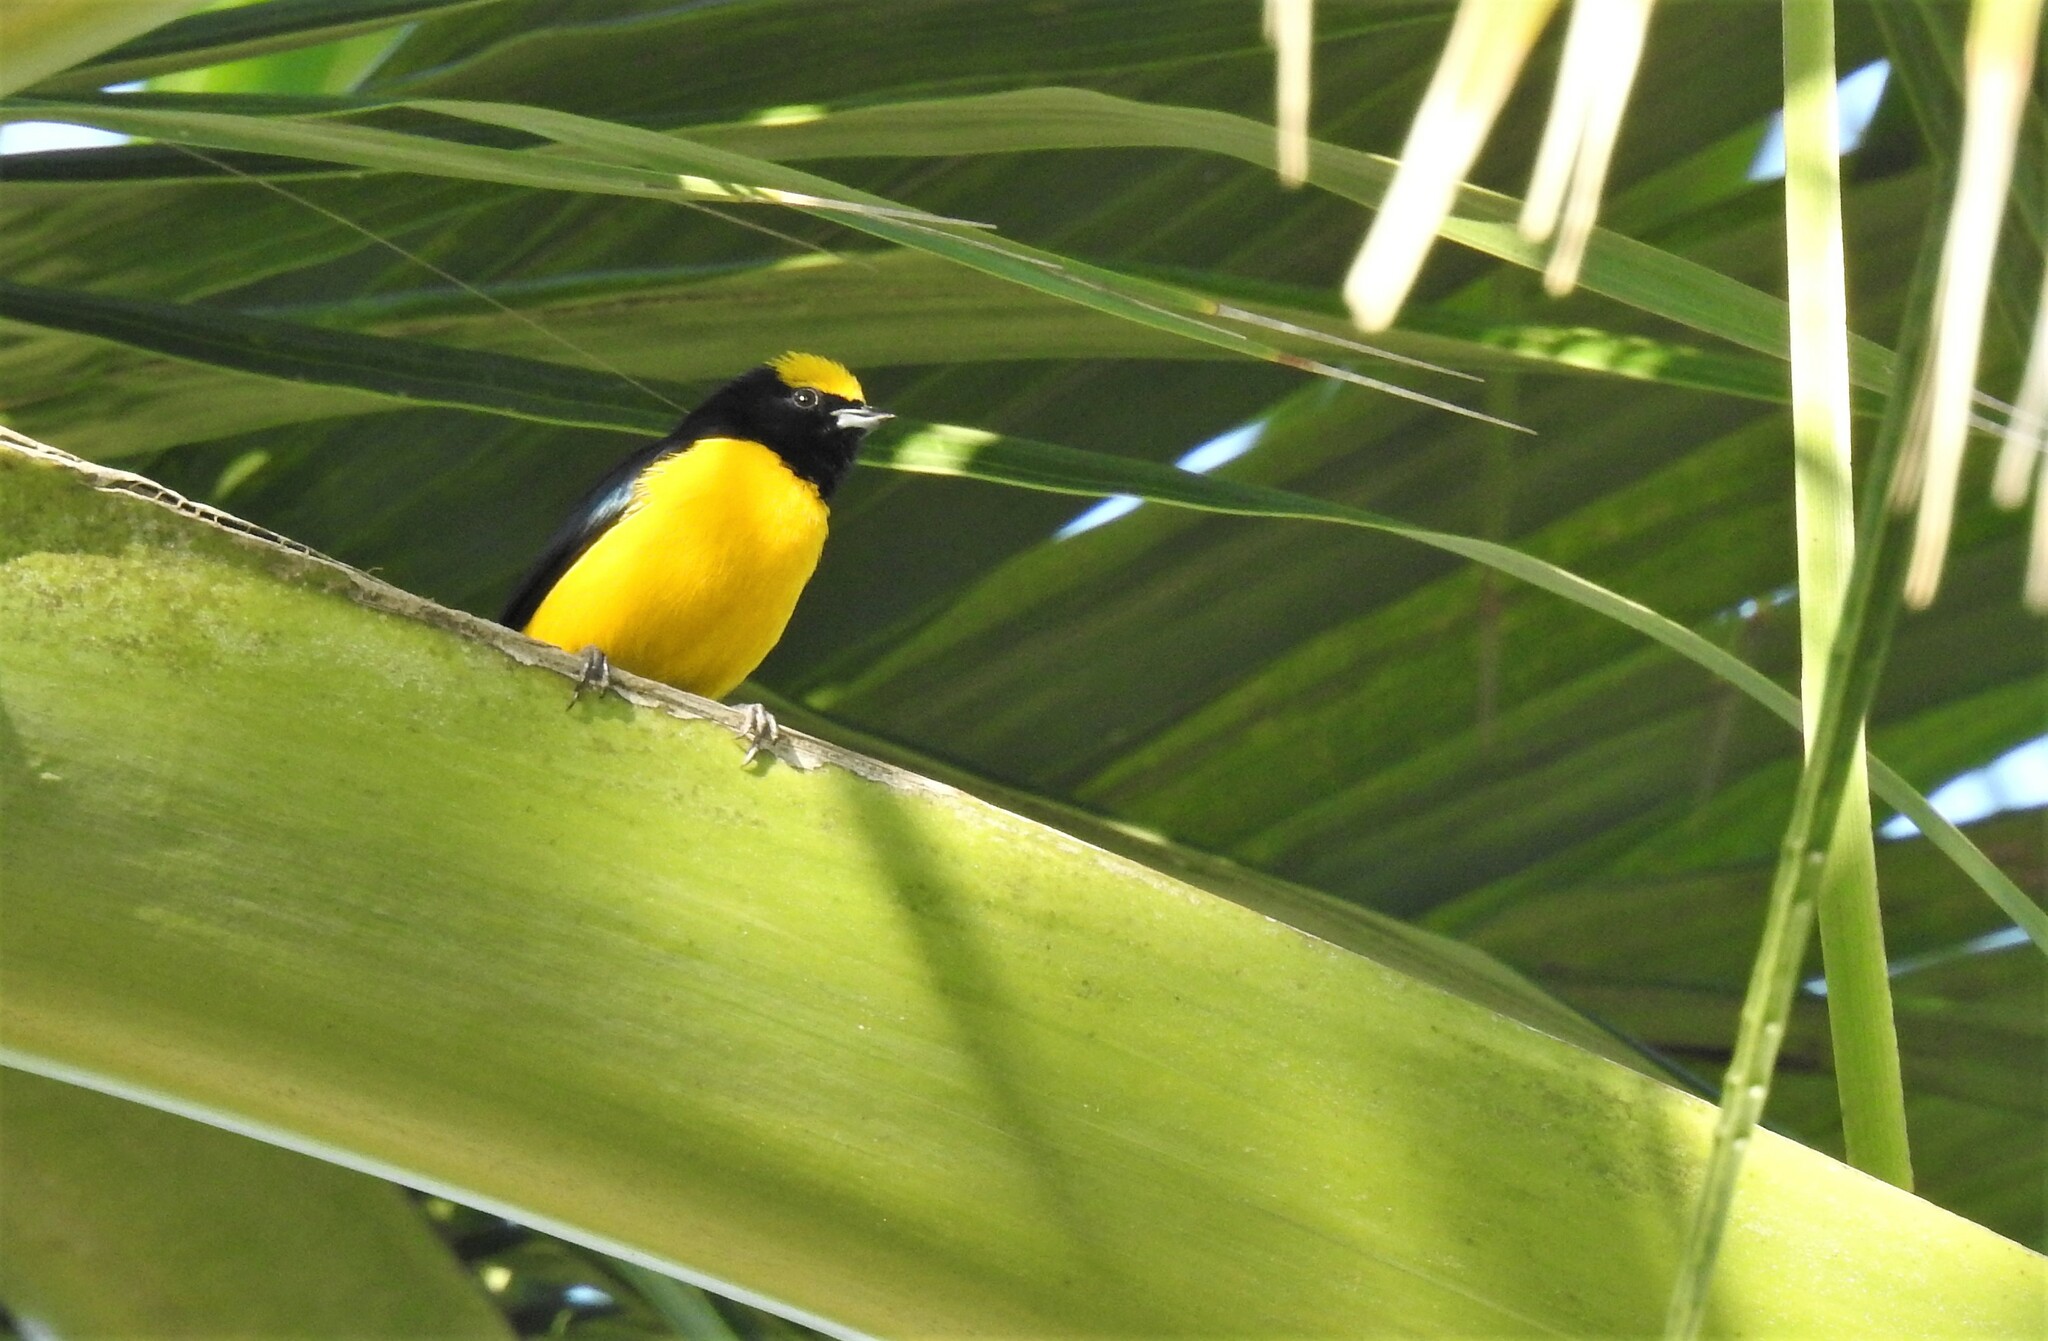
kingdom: Animalia
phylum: Chordata
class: Aves
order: Passeriformes
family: Fringillidae
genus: Euphonia
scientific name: Euphonia trinitatis
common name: Trinidad euphonia
